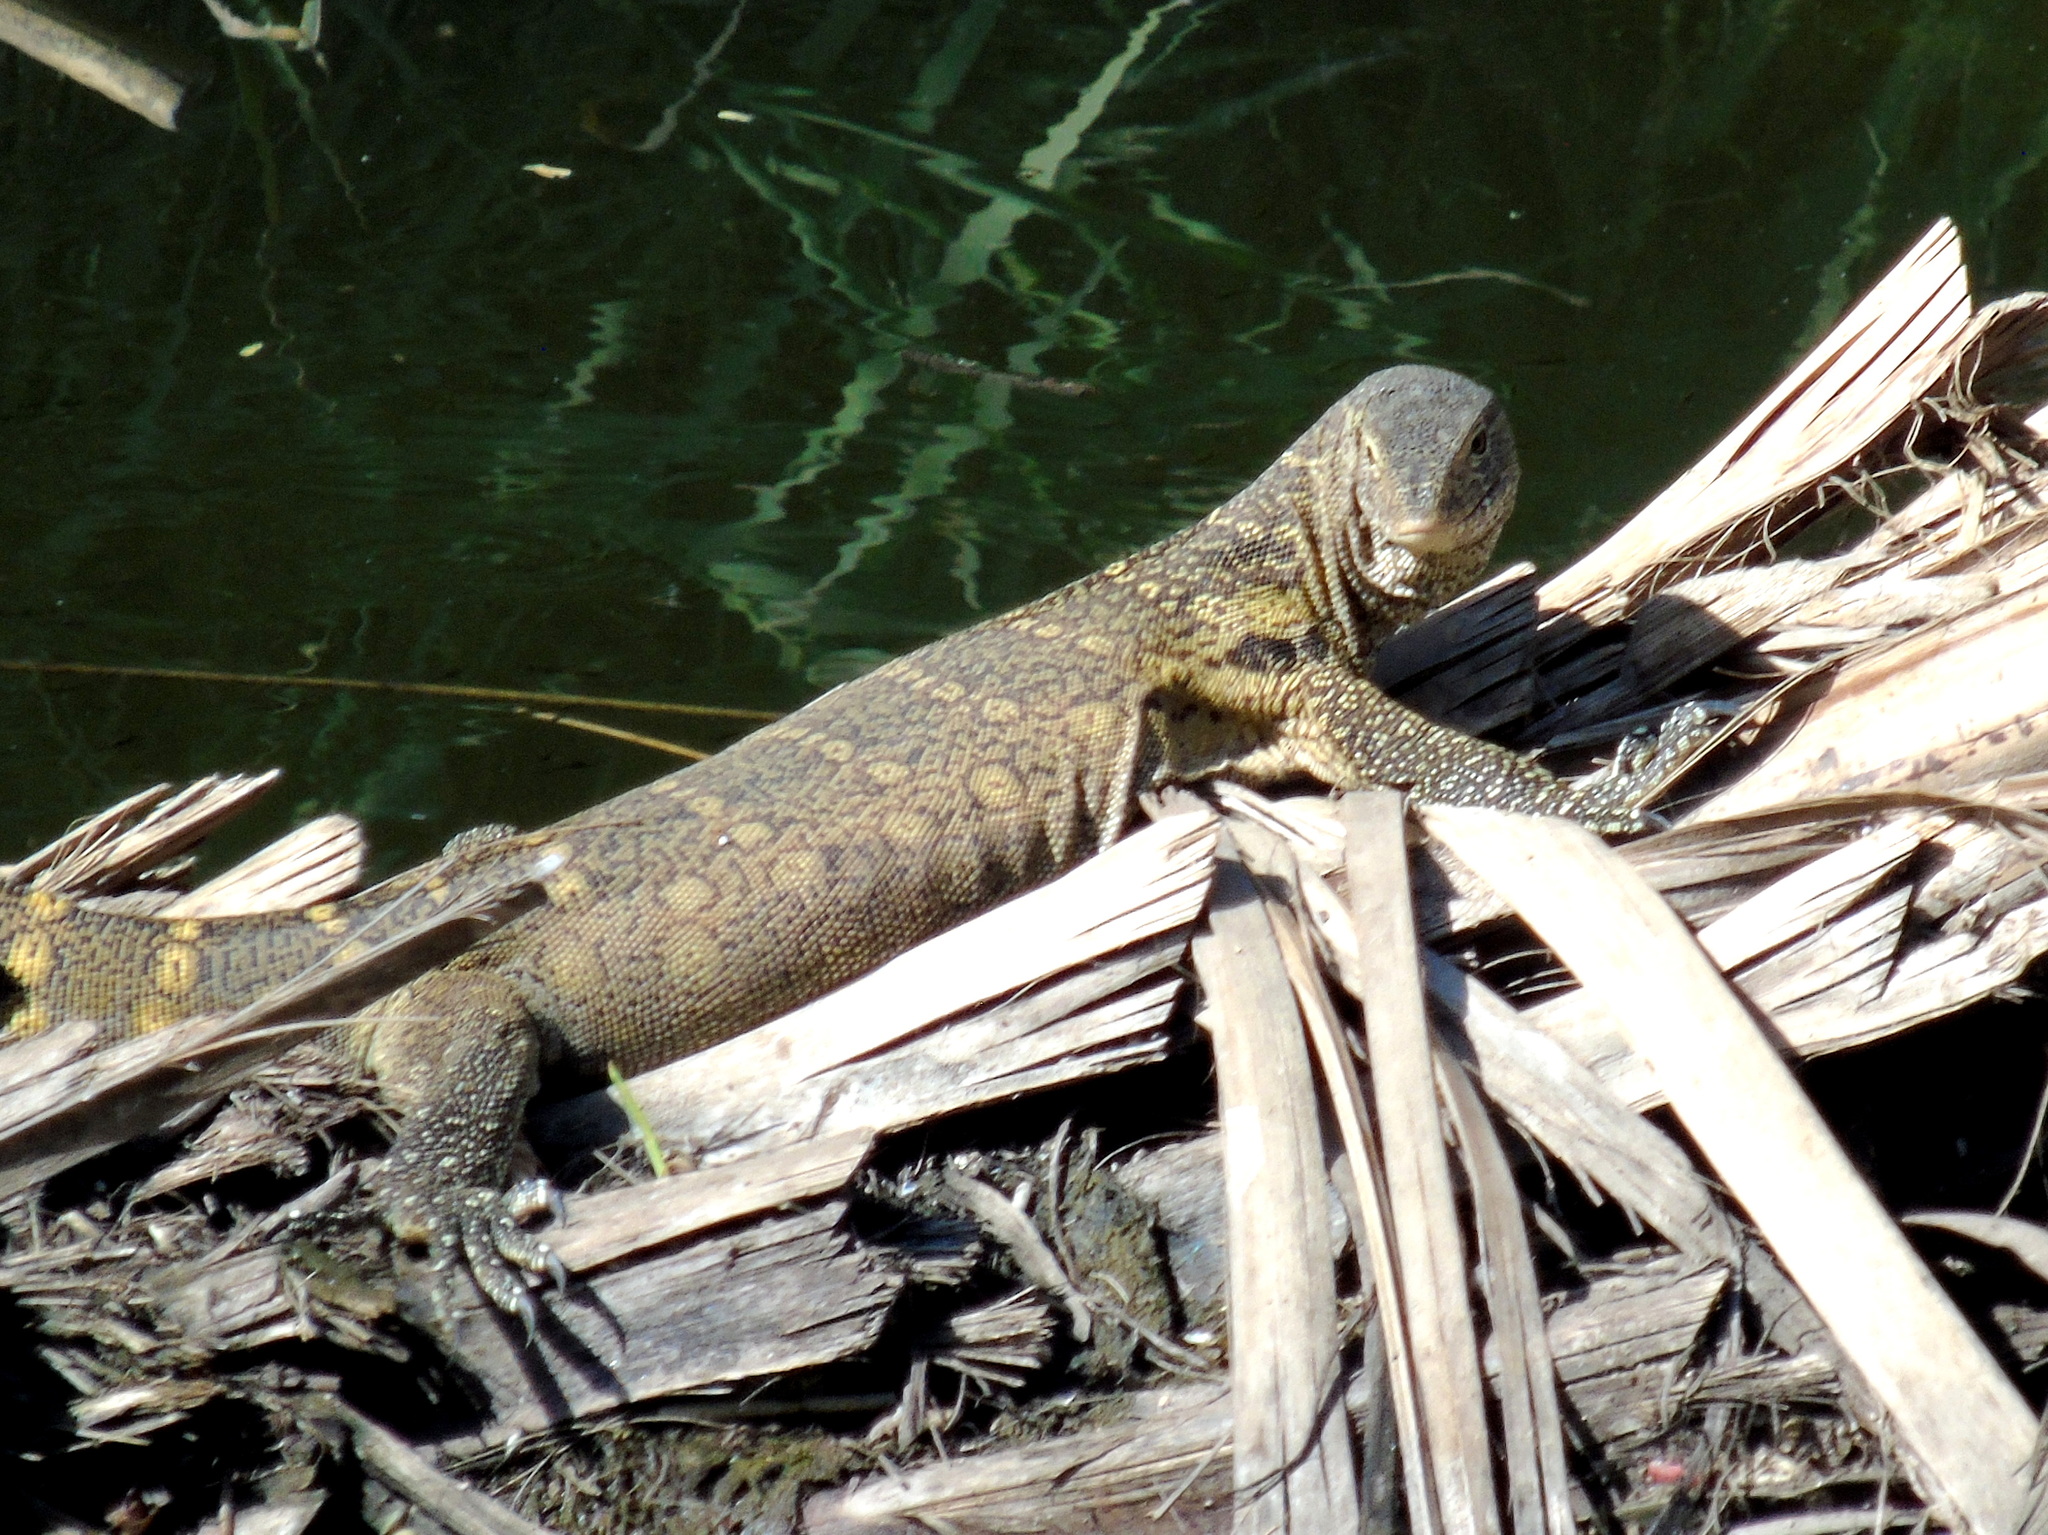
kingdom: Animalia
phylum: Chordata
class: Squamata
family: Varanidae
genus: Varanus
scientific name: Varanus niloticus
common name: Nile monitor
